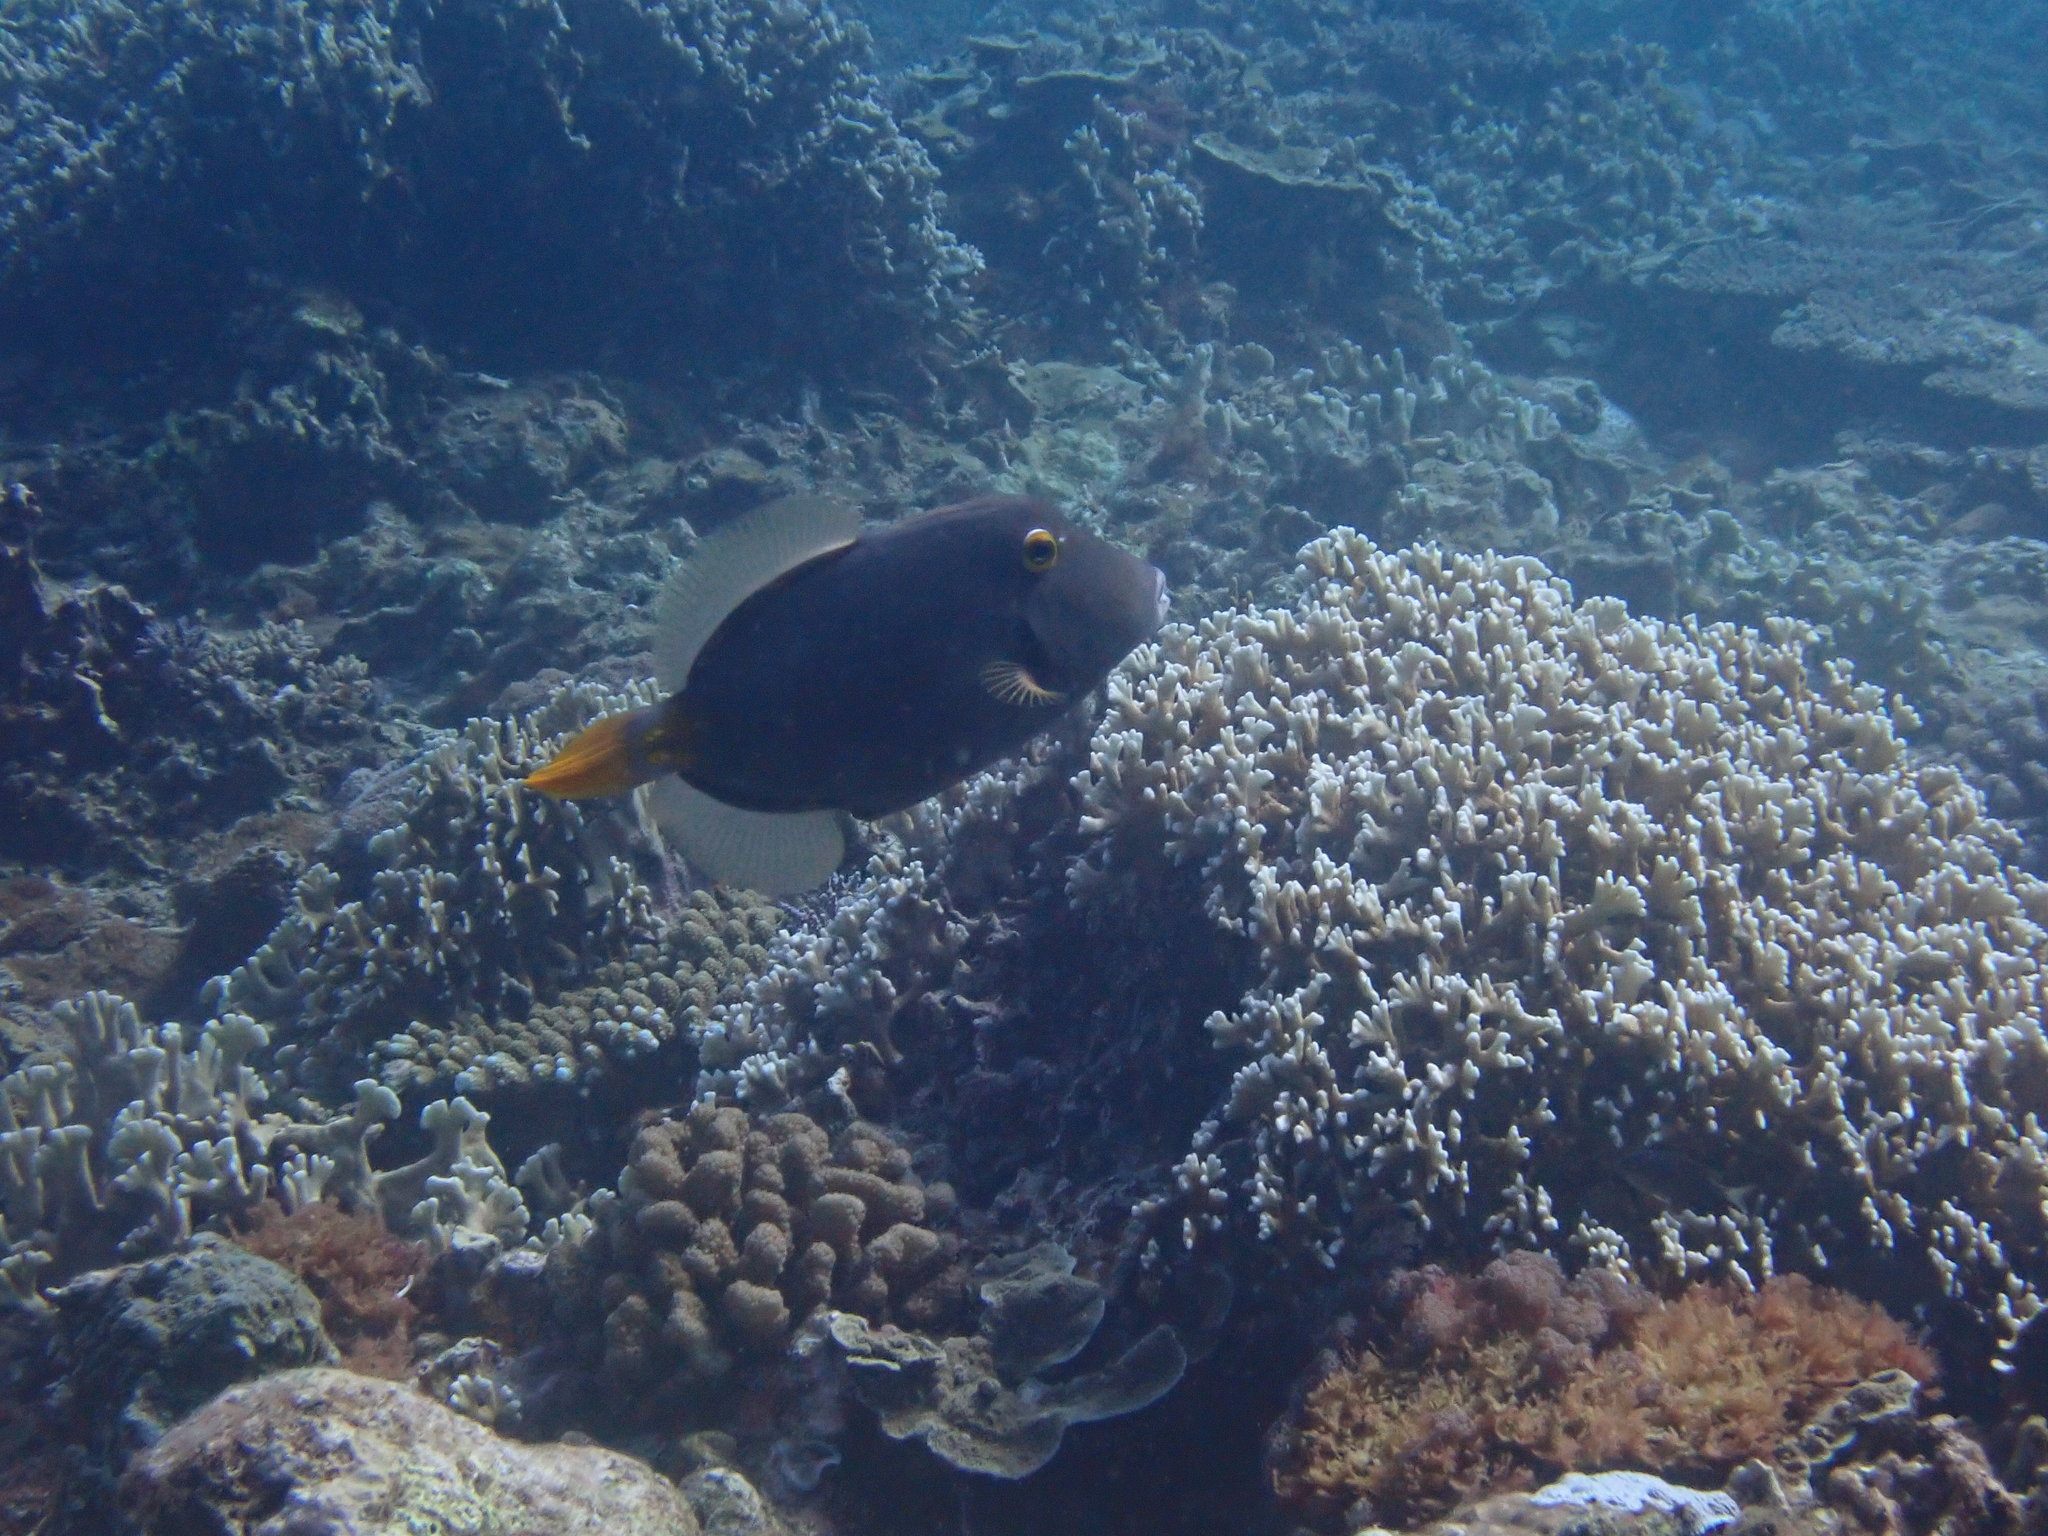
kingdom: Animalia
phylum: Chordata
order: Tetraodontiformes
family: Monacanthidae
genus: Cantherhines
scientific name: Cantherhines dumerilii
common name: Barred filefish
